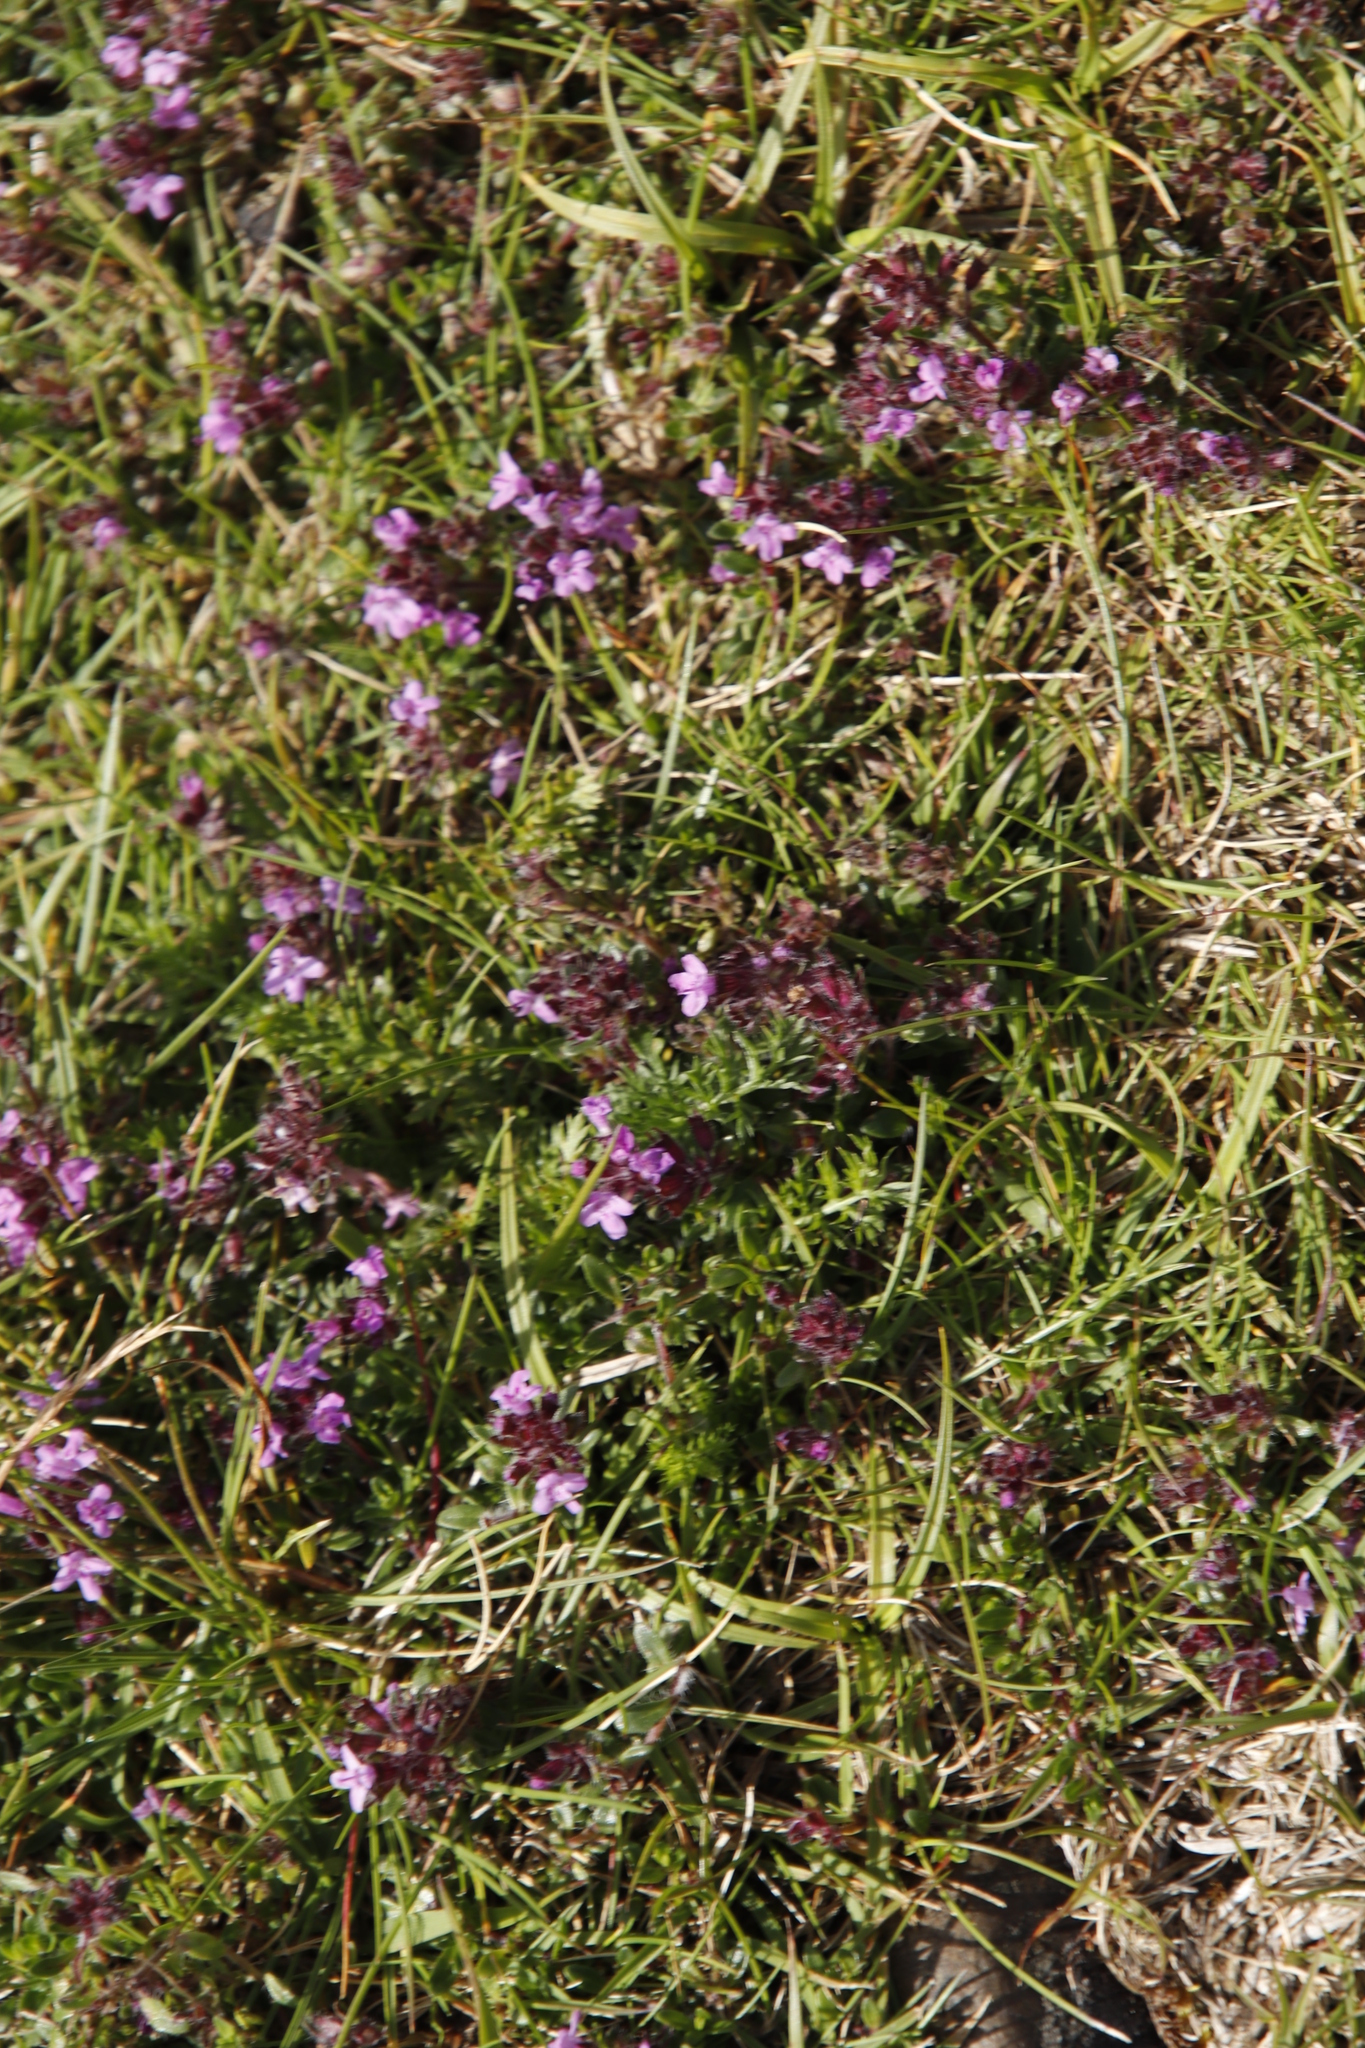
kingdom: Plantae
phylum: Tracheophyta
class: Magnoliopsida
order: Lamiales
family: Lamiaceae
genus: Thymus
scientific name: Thymus praecox
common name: Wild thyme
